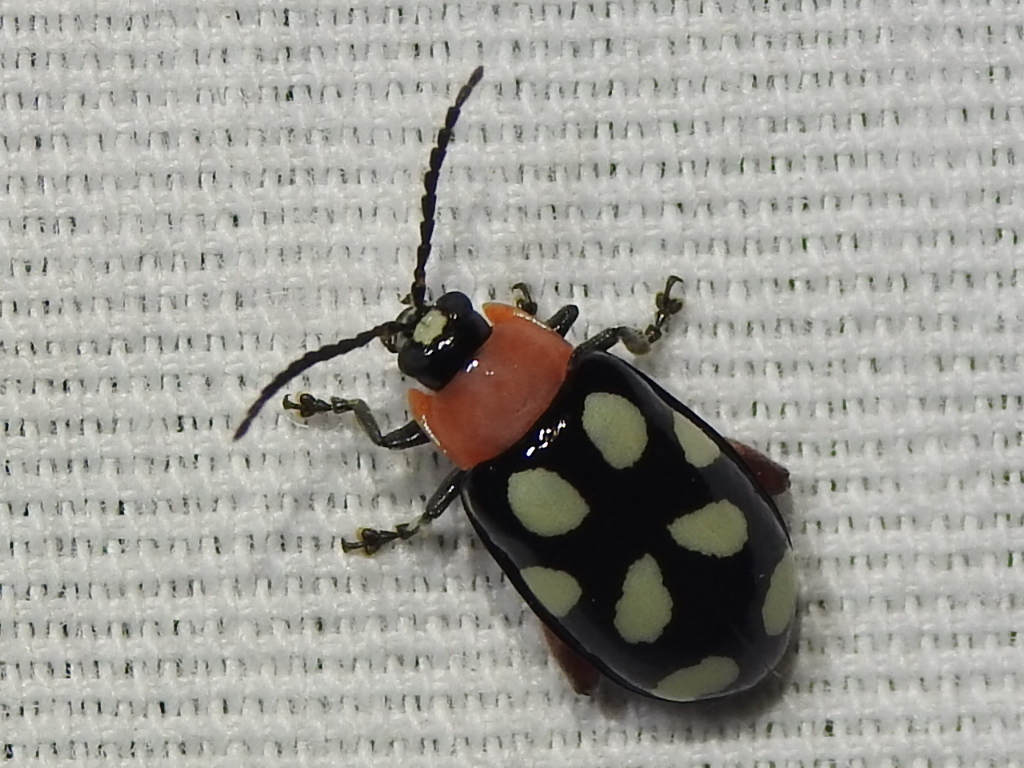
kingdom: Animalia
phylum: Arthropoda
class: Insecta
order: Coleoptera
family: Chrysomelidae
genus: Omophoita
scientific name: Omophoita cyanipennis
